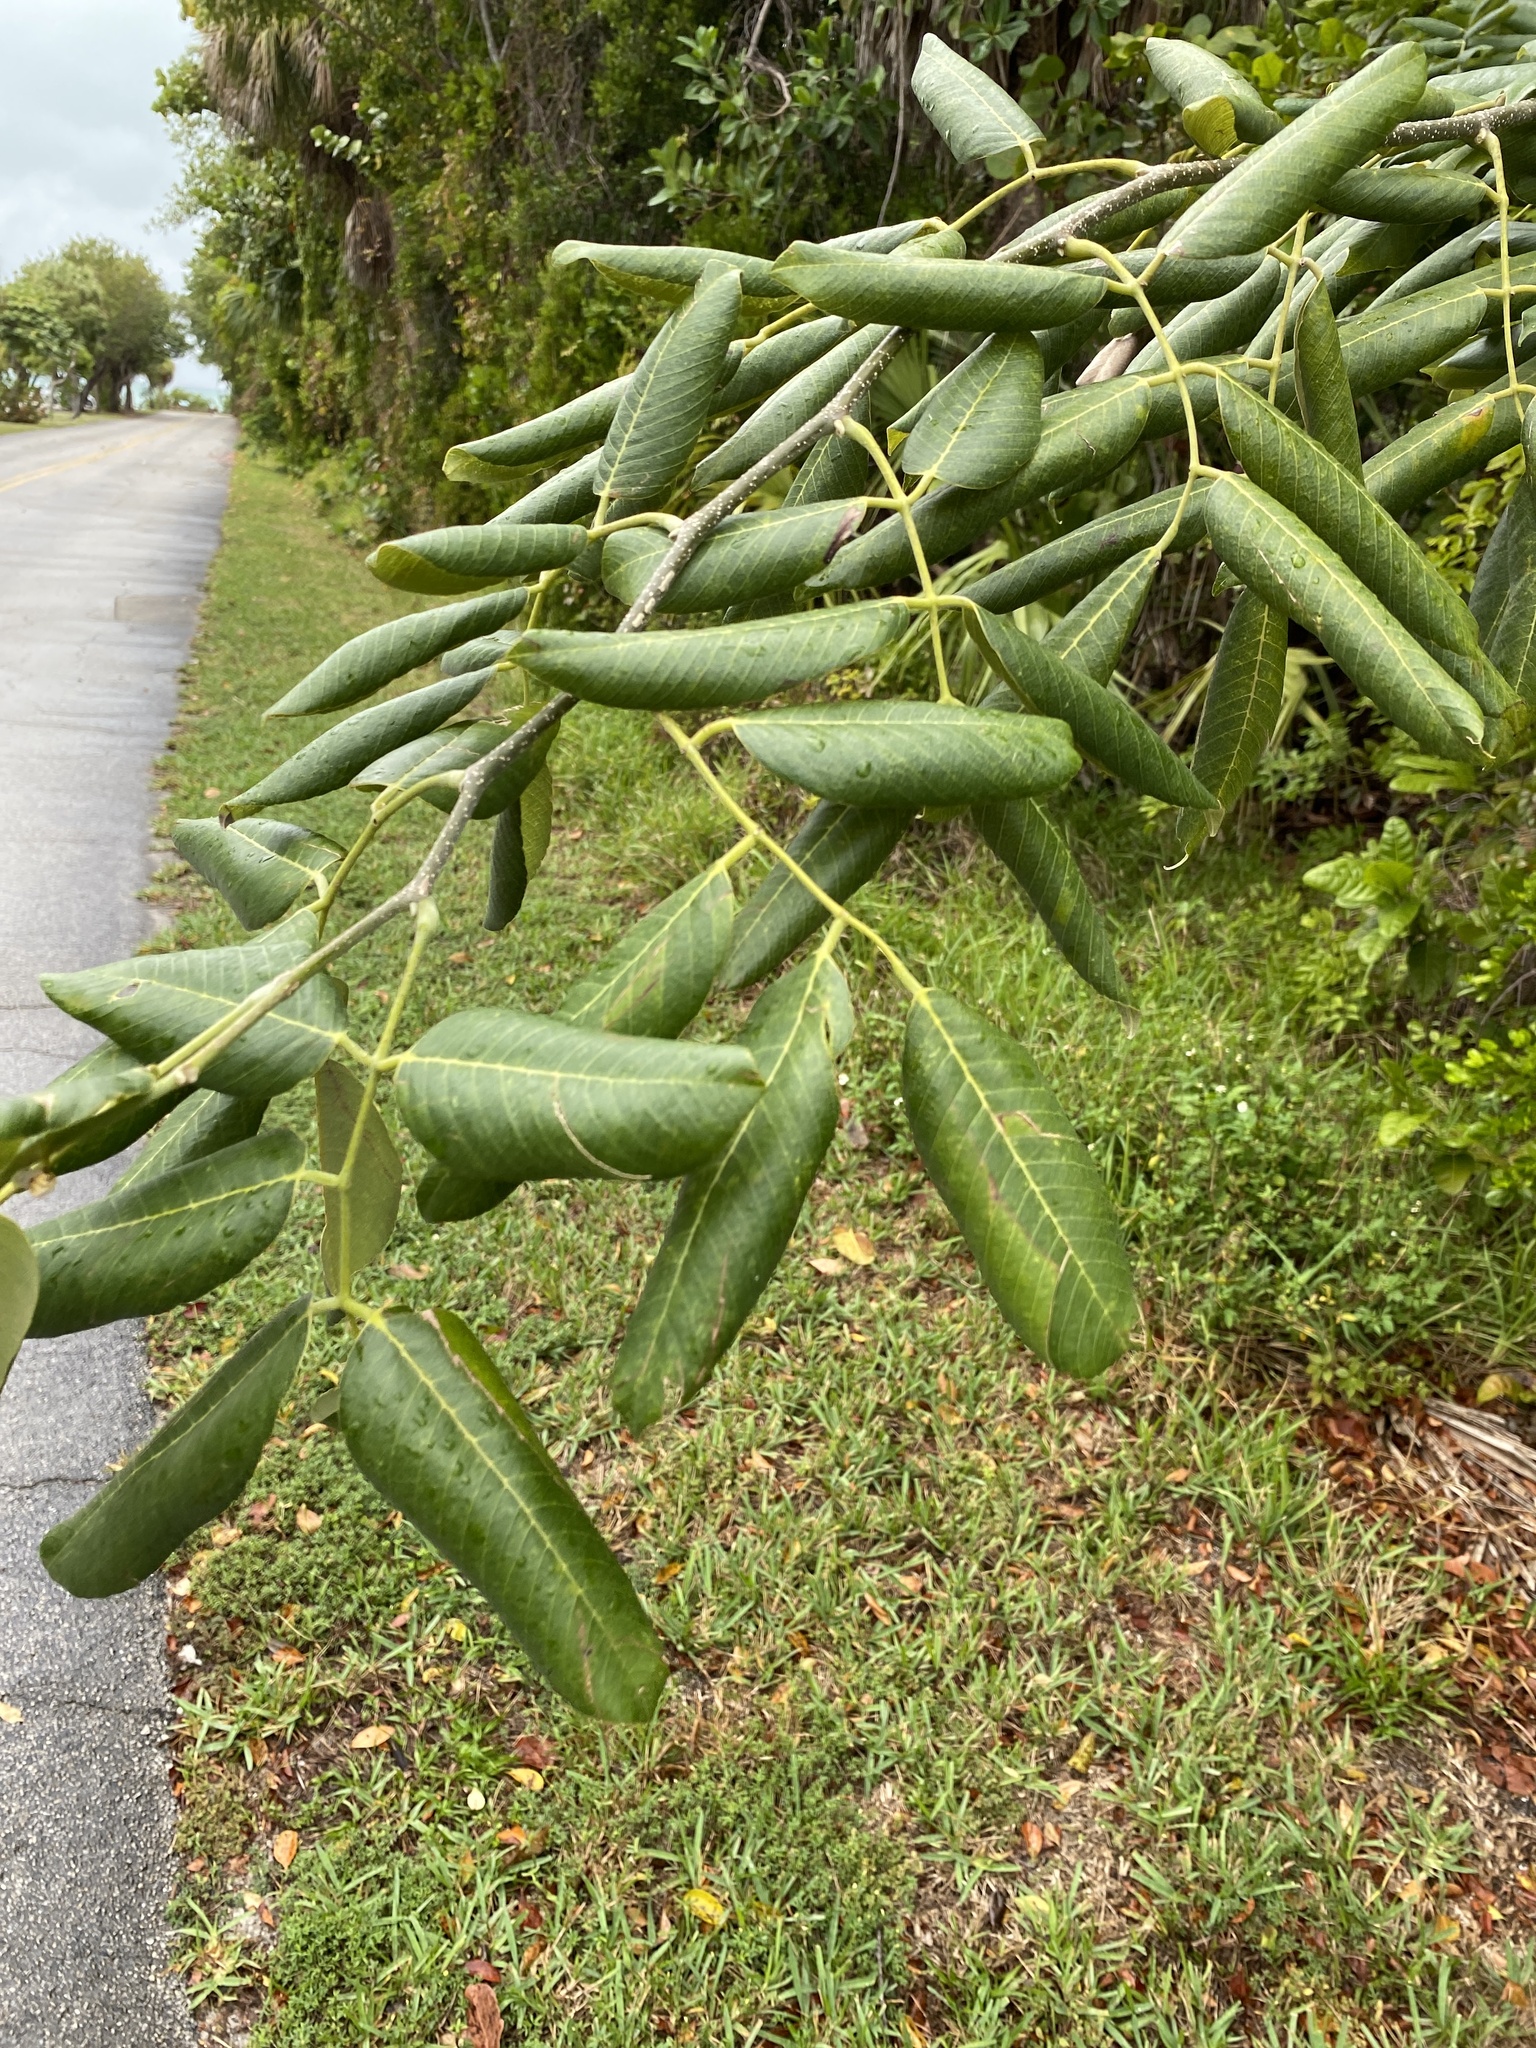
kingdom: Plantae
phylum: Tracheophyta
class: Magnoliopsida
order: Fabales
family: Fabaceae
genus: Piscidia
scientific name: Piscidia piscipula
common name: Florida fishpoison tree
